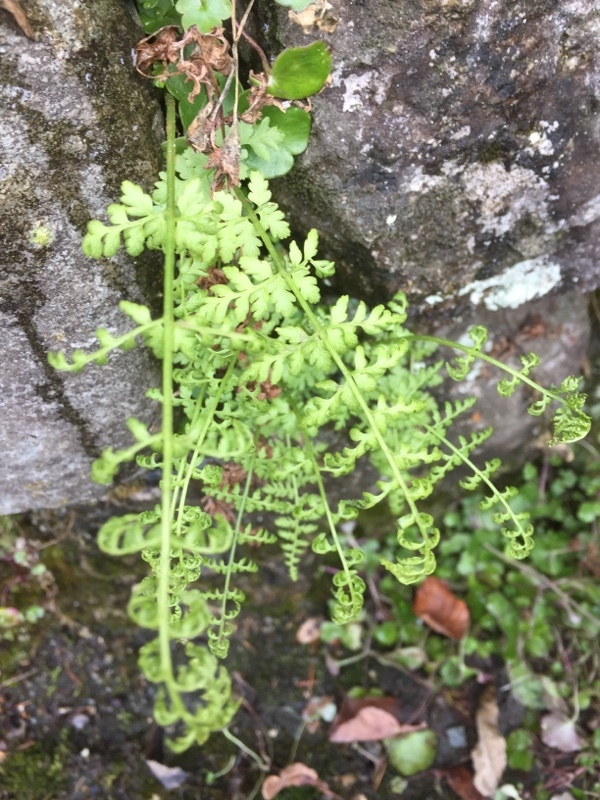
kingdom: Plantae
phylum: Tracheophyta
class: Polypodiopsida
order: Polypodiales
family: Cystopteridaceae
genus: Cystopteris
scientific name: Cystopteris fragilis
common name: Brittle bladder fern
